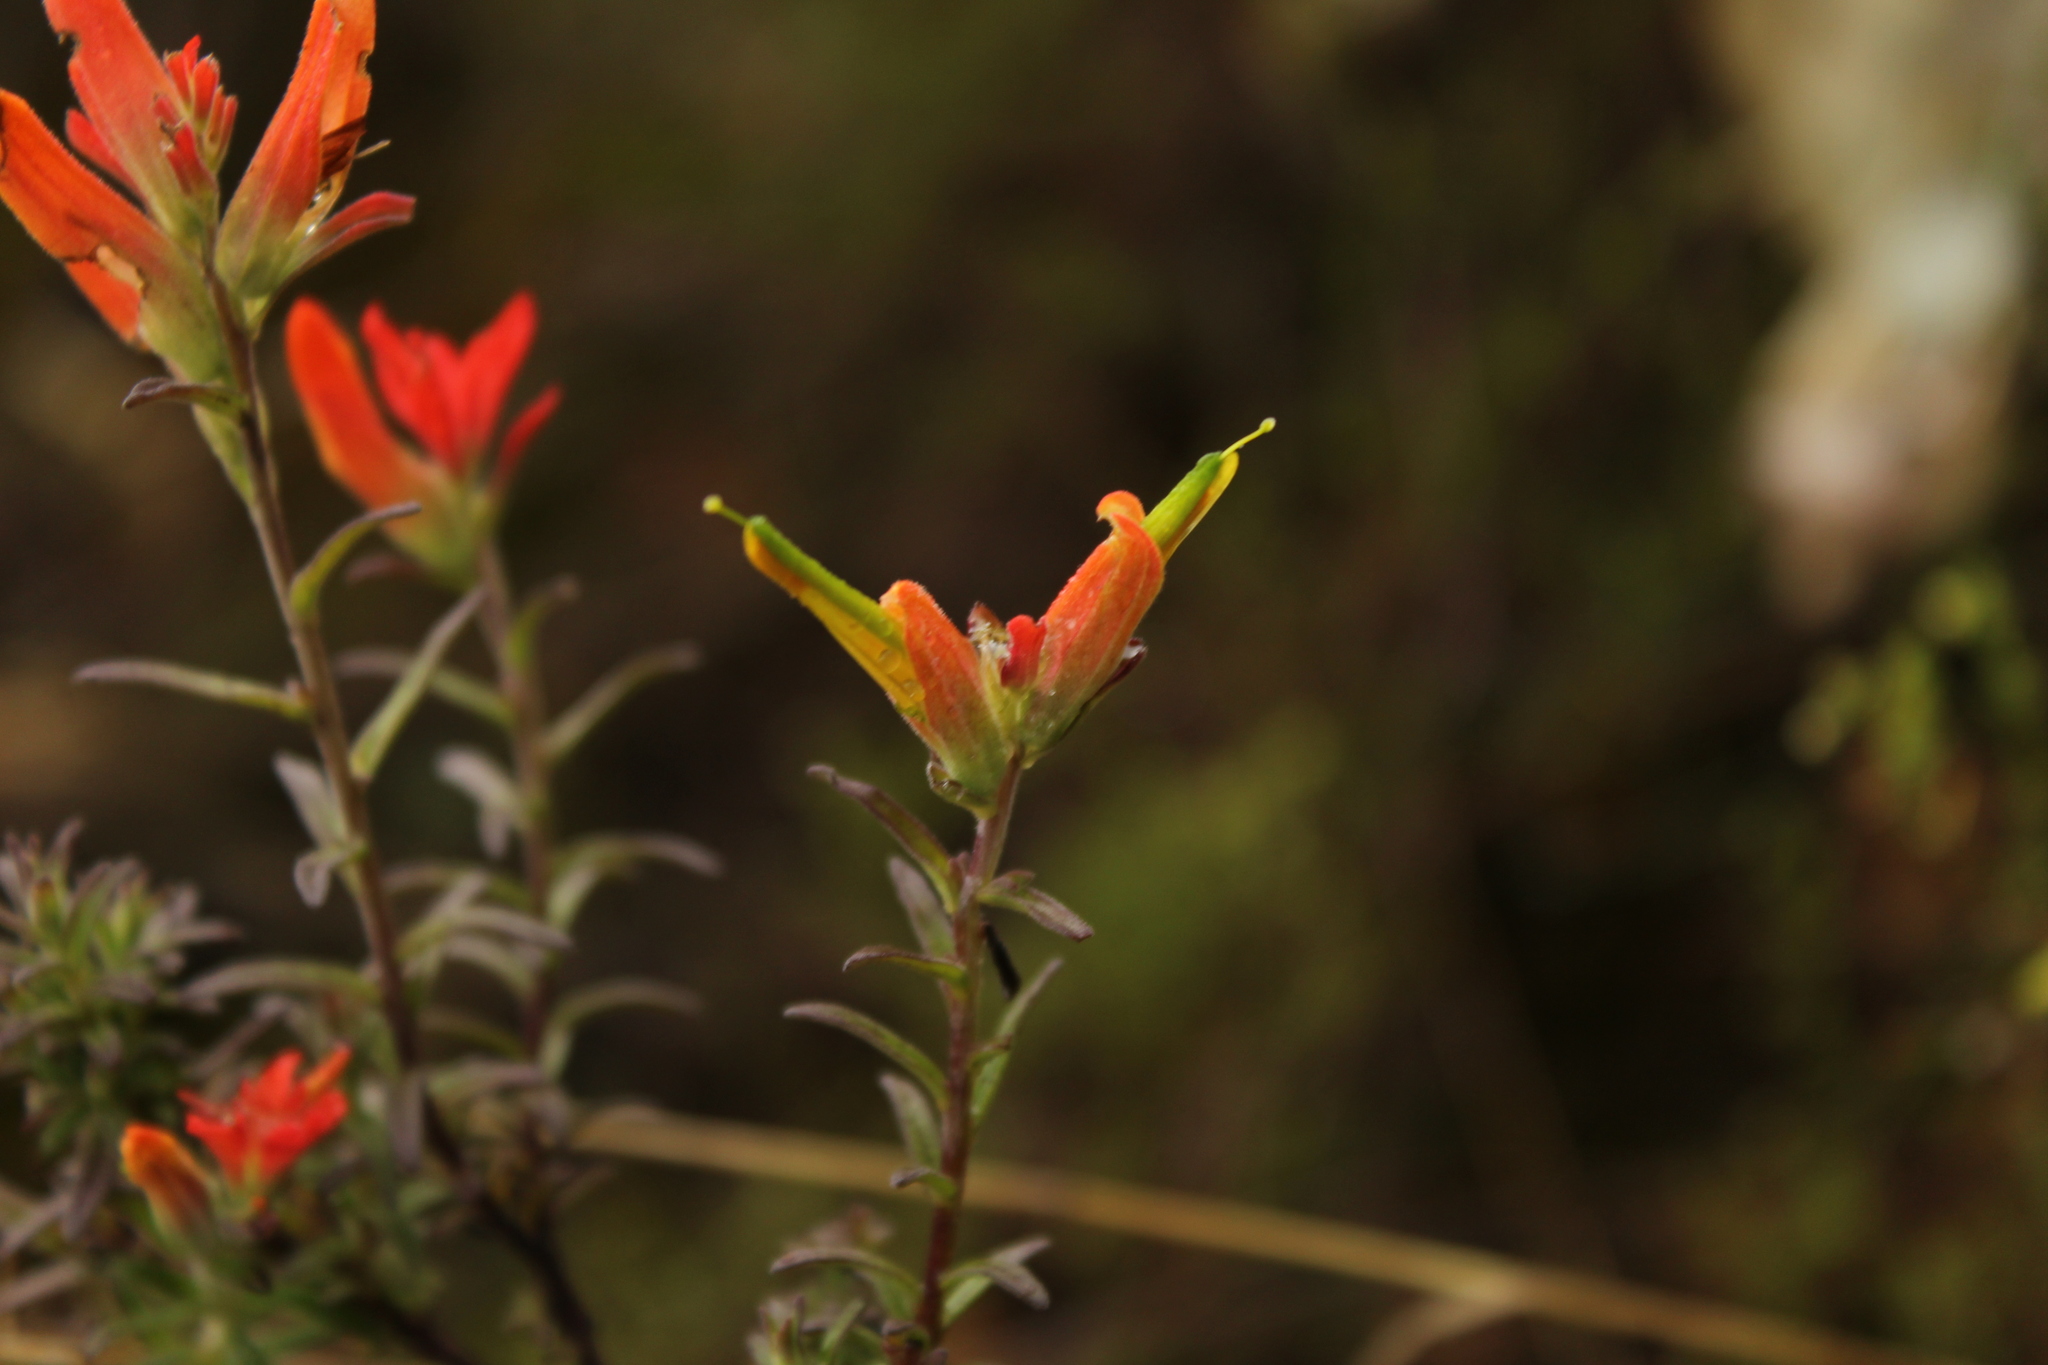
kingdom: Plantae
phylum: Tracheophyta
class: Magnoliopsida
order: Lamiales
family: Orobanchaceae
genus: Castilleja
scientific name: Castilleja integrifolia
